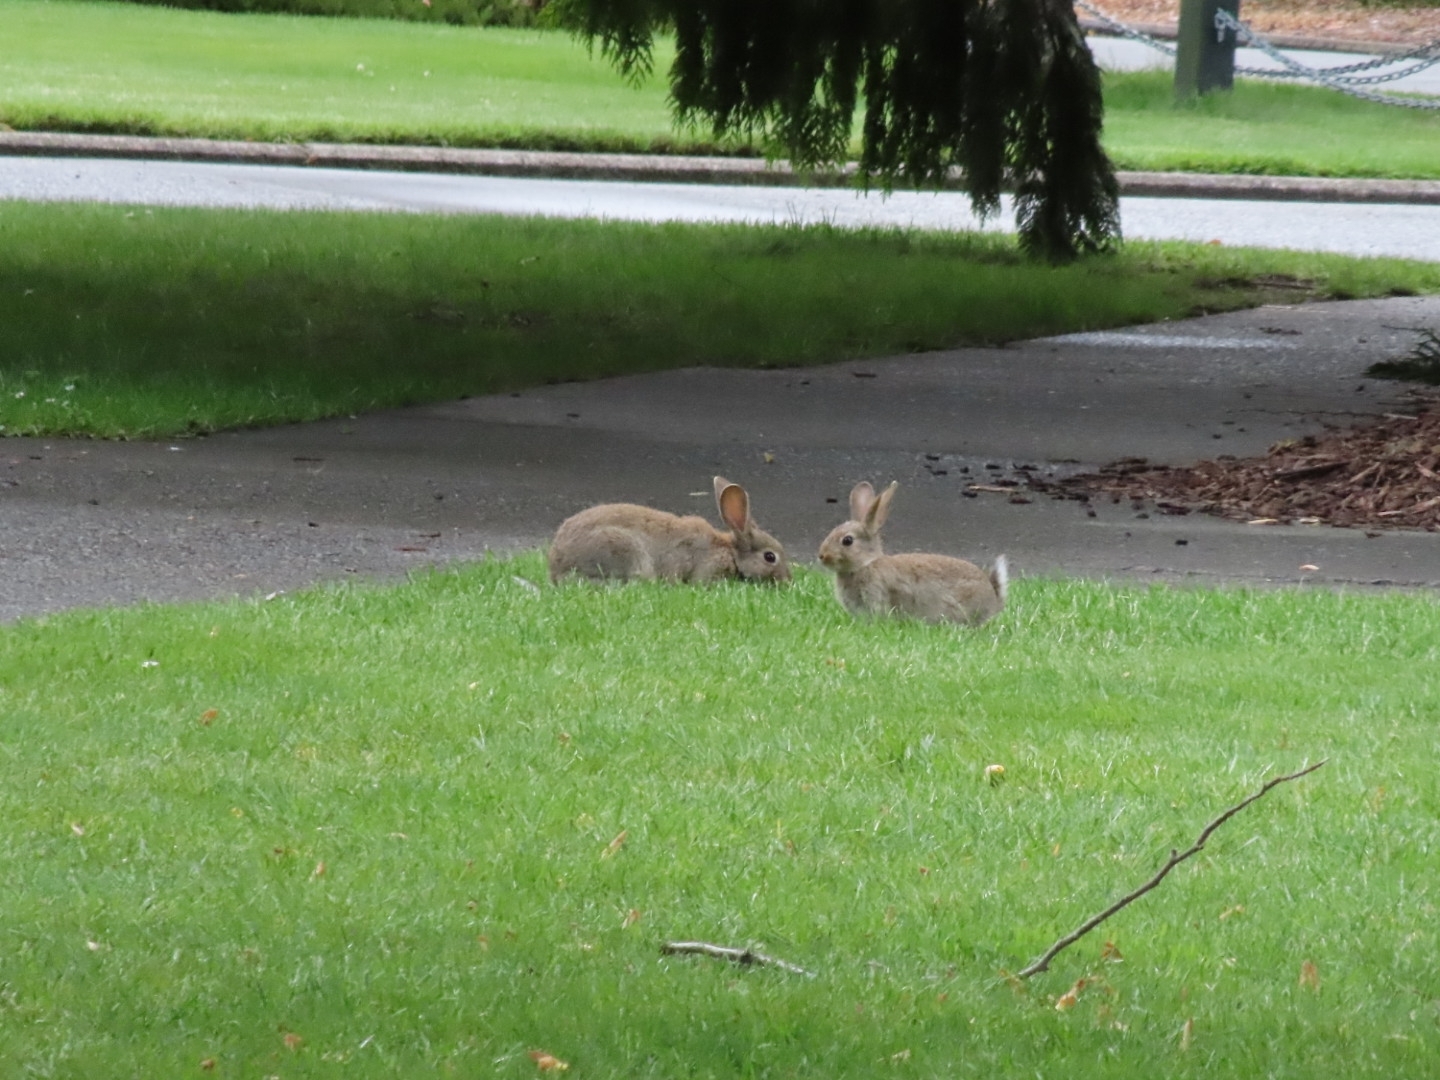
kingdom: Animalia
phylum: Chordata
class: Mammalia
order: Lagomorpha
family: Leporidae
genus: Oryctolagus
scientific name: Oryctolagus cuniculus
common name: European rabbit
